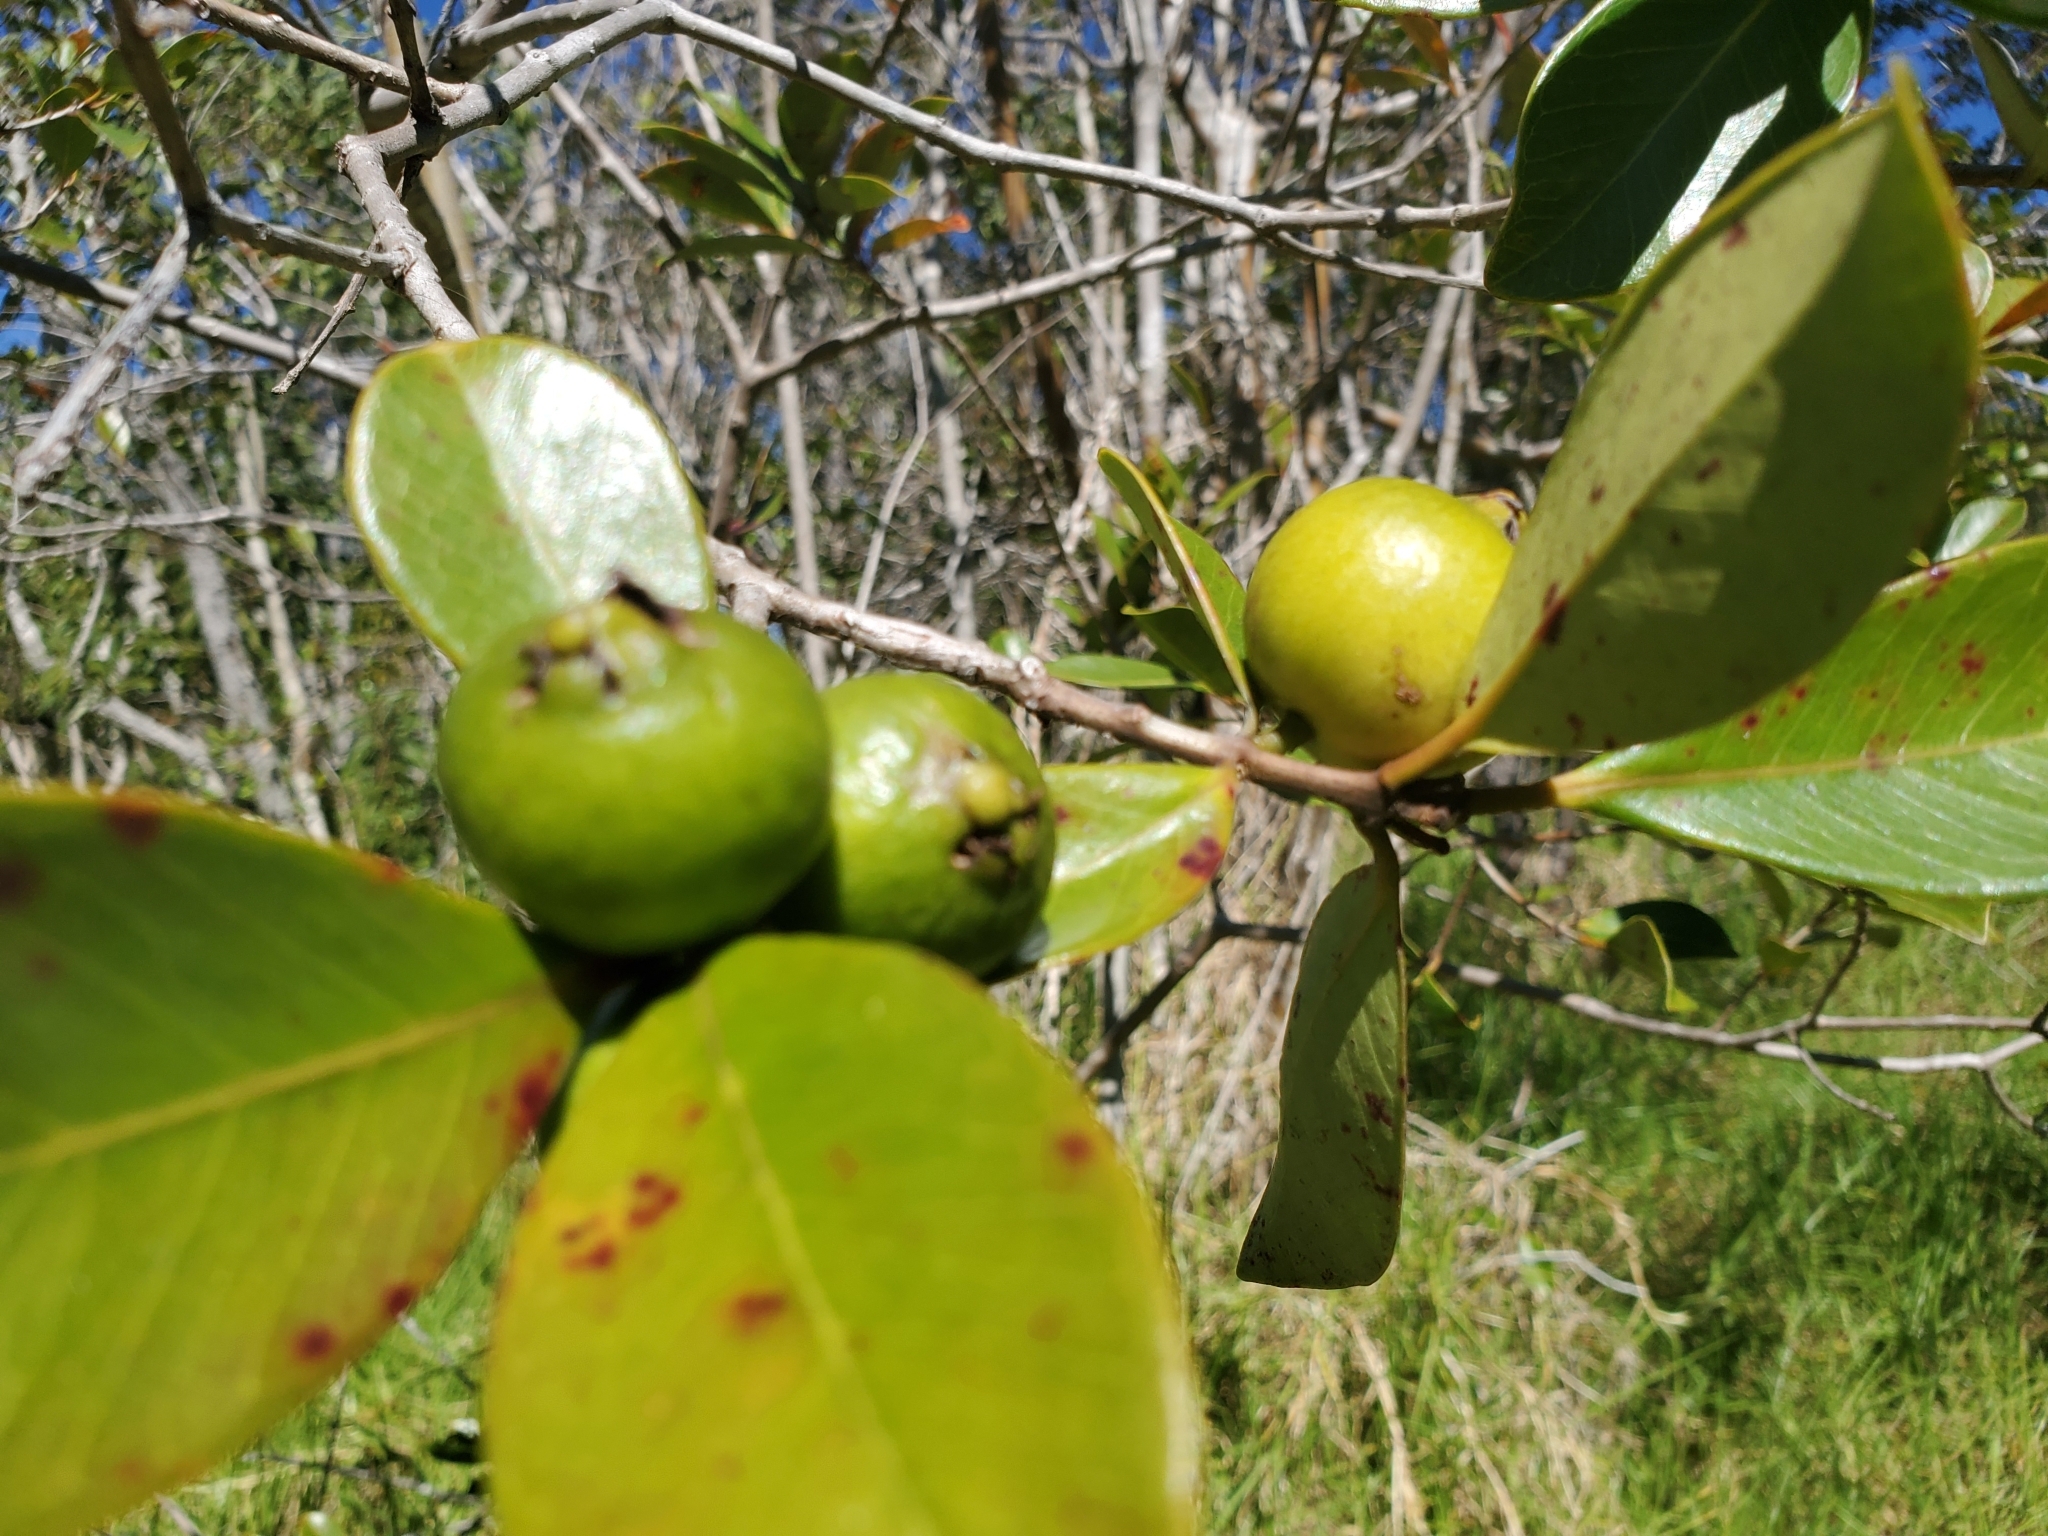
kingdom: Plantae
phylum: Tracheophyta
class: Magnoliopsida
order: Myrtales
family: Myrtaceae
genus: Psidium
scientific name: Psidium cattleianum
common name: Strawberry guava
